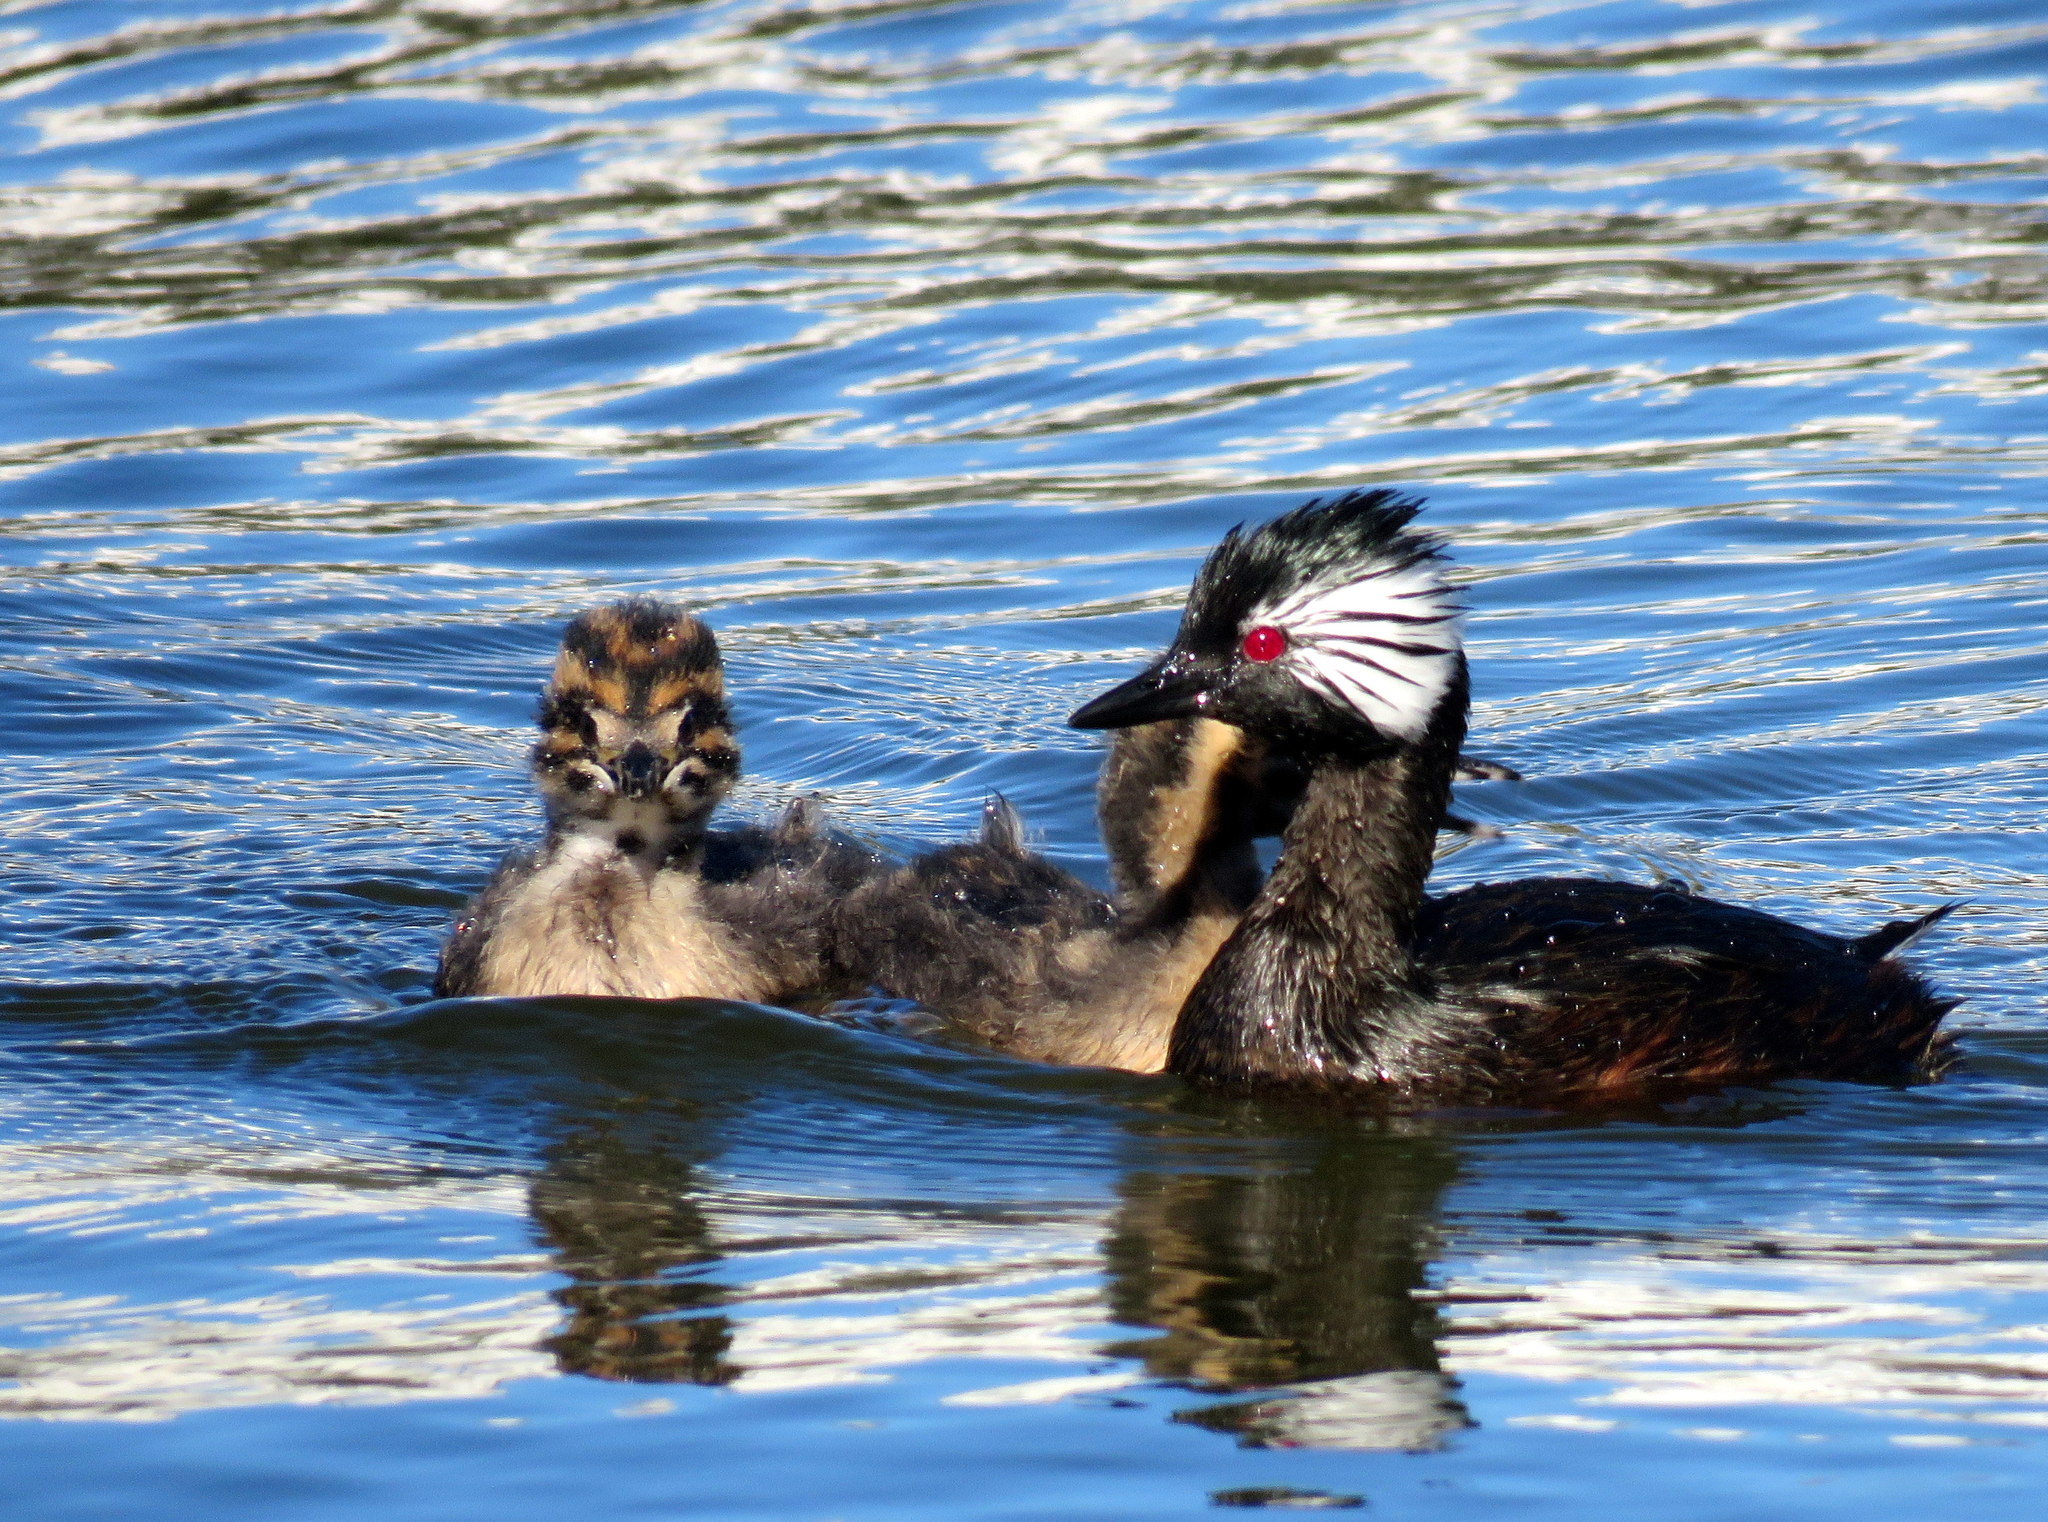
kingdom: Animalia
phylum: Chordata
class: Aves
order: Podicipediformes
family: Podicipedidae
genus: Rollandia
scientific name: Rollandia rolland
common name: White-tufted grebe
